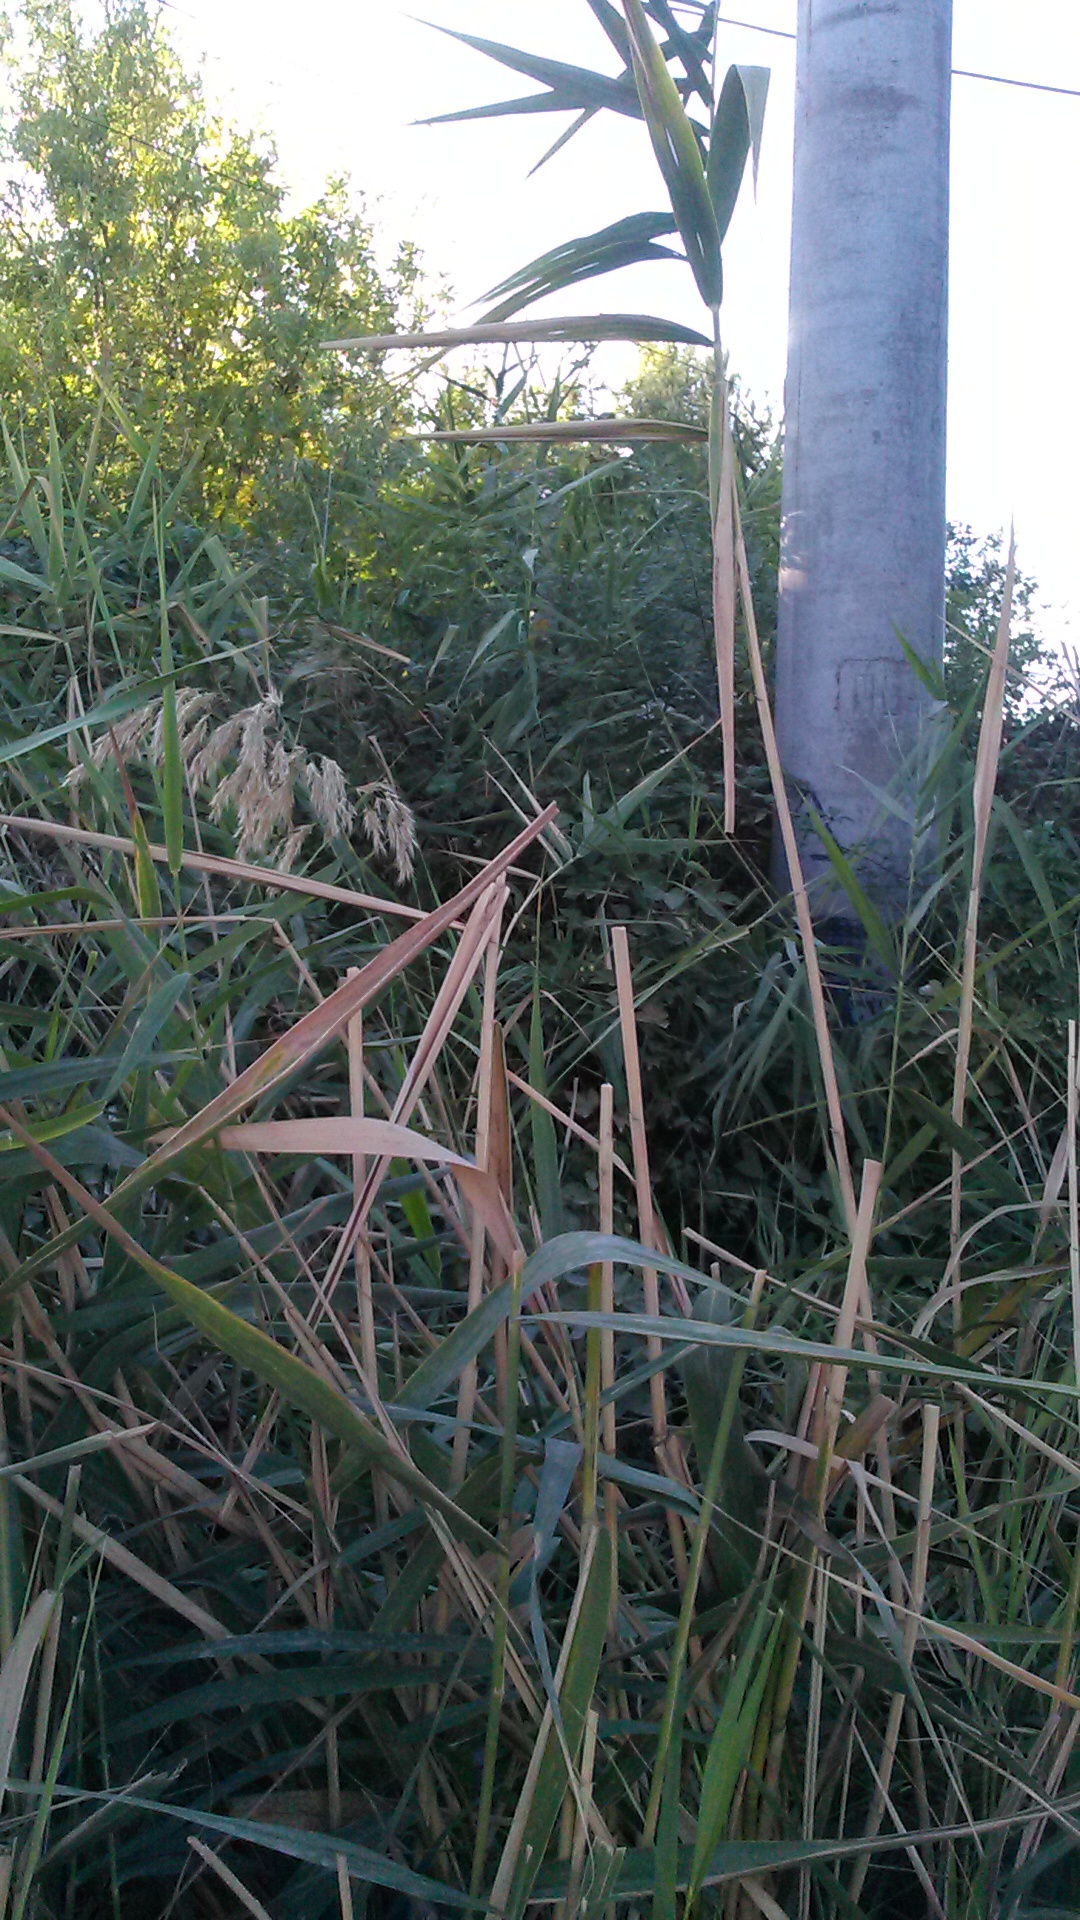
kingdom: Plantae
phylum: Tracheophyta
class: Liliopsida
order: Poales
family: Poaceae
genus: Phragmites
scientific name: Phragmites australis
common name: Common reed
